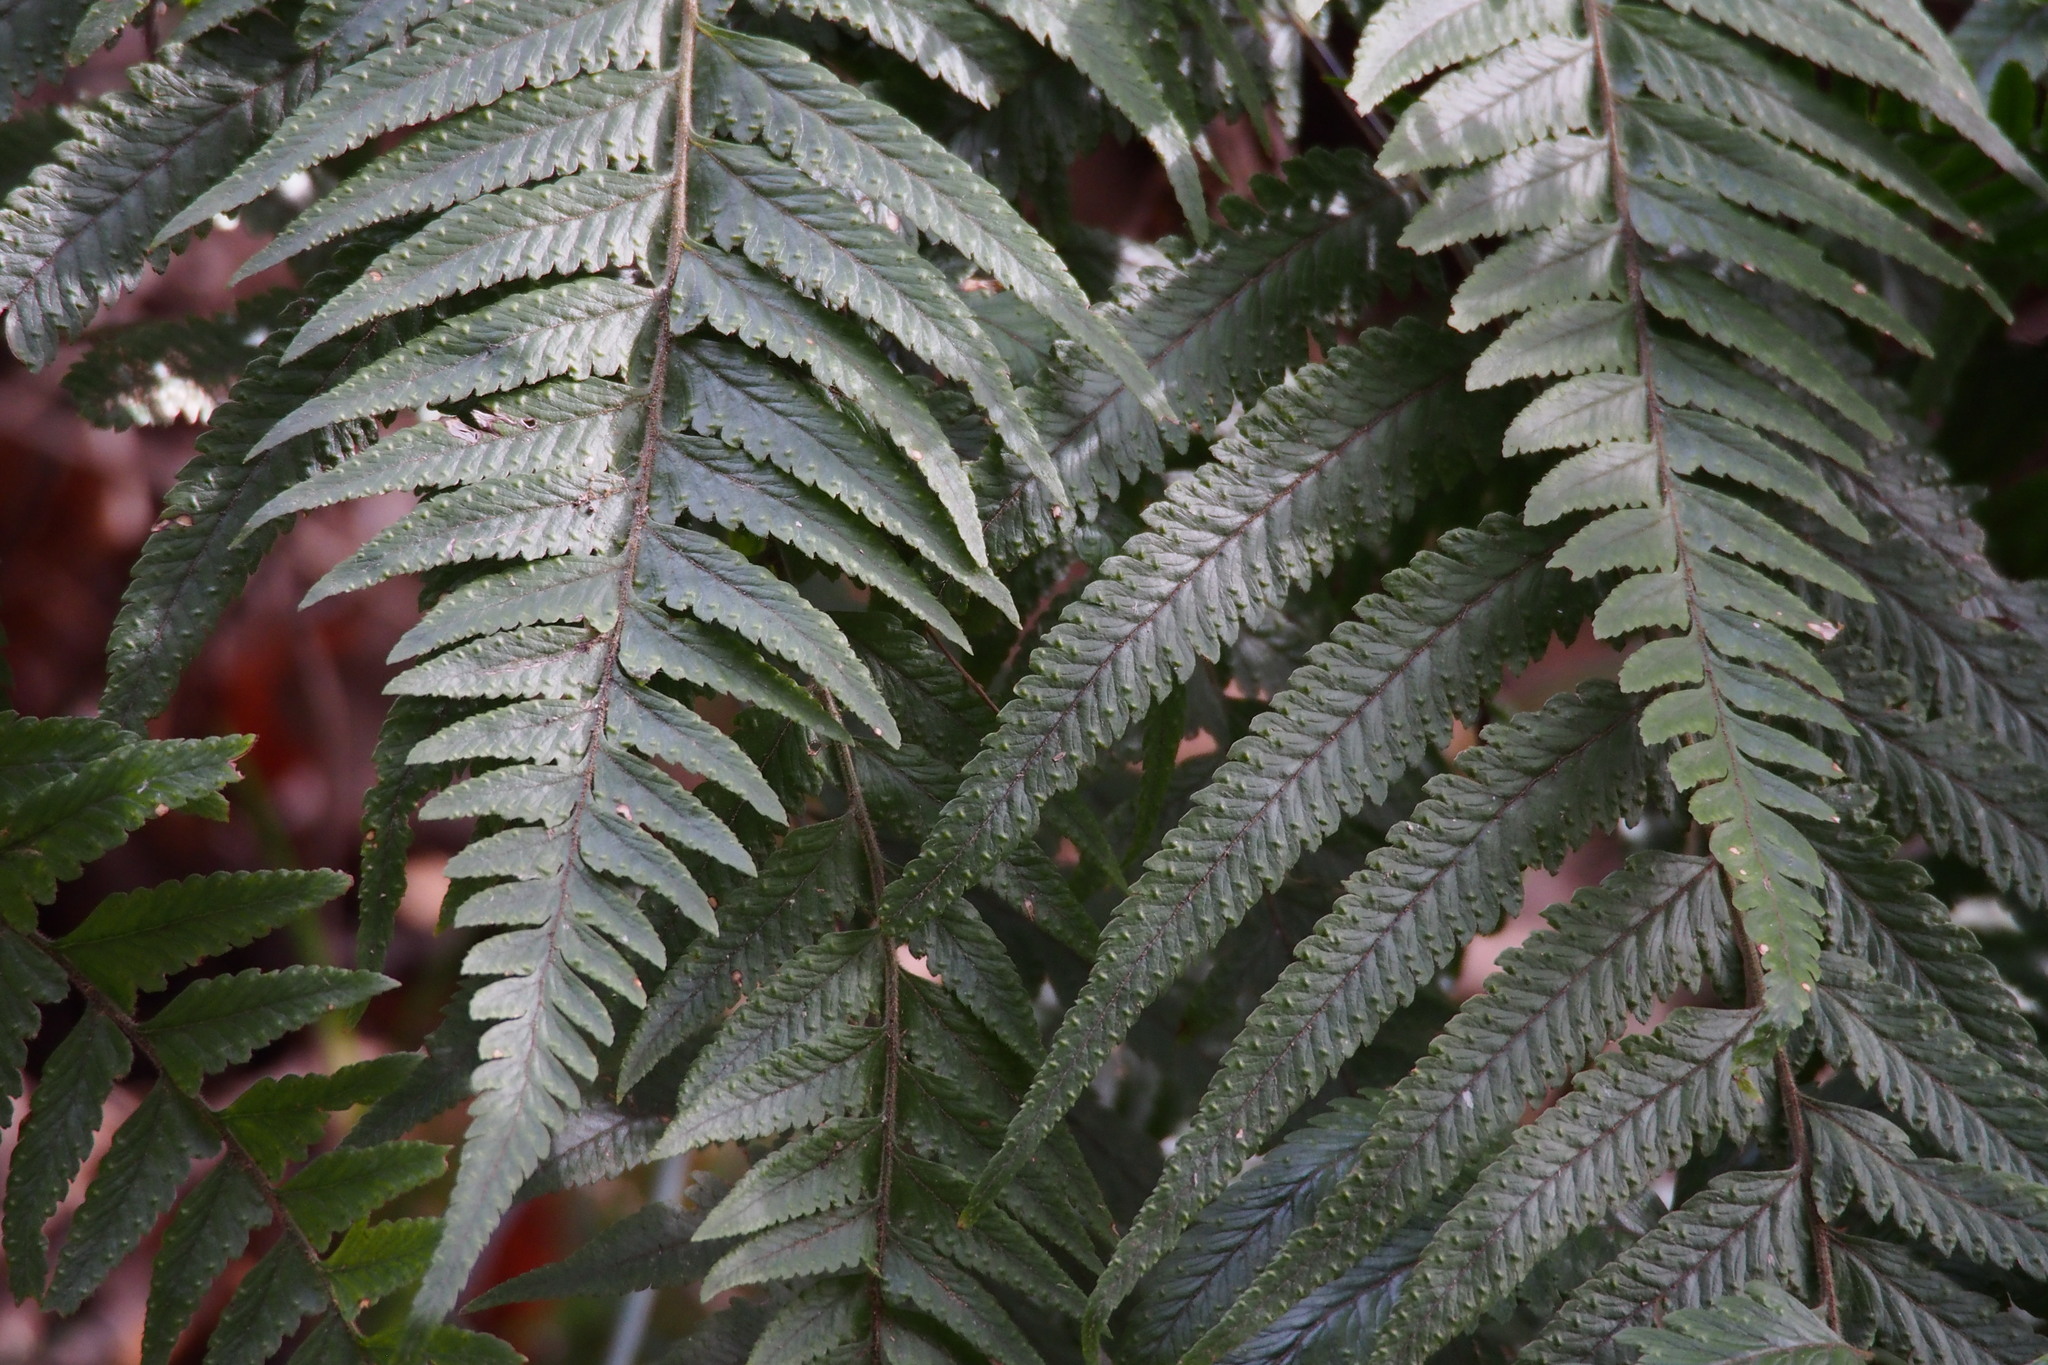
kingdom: Plantae
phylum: Tracheophyta
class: Polypodiopsida
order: Polypodiales
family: Dennstaedtiaceae
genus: Microlepia
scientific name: Microlepia marginata
